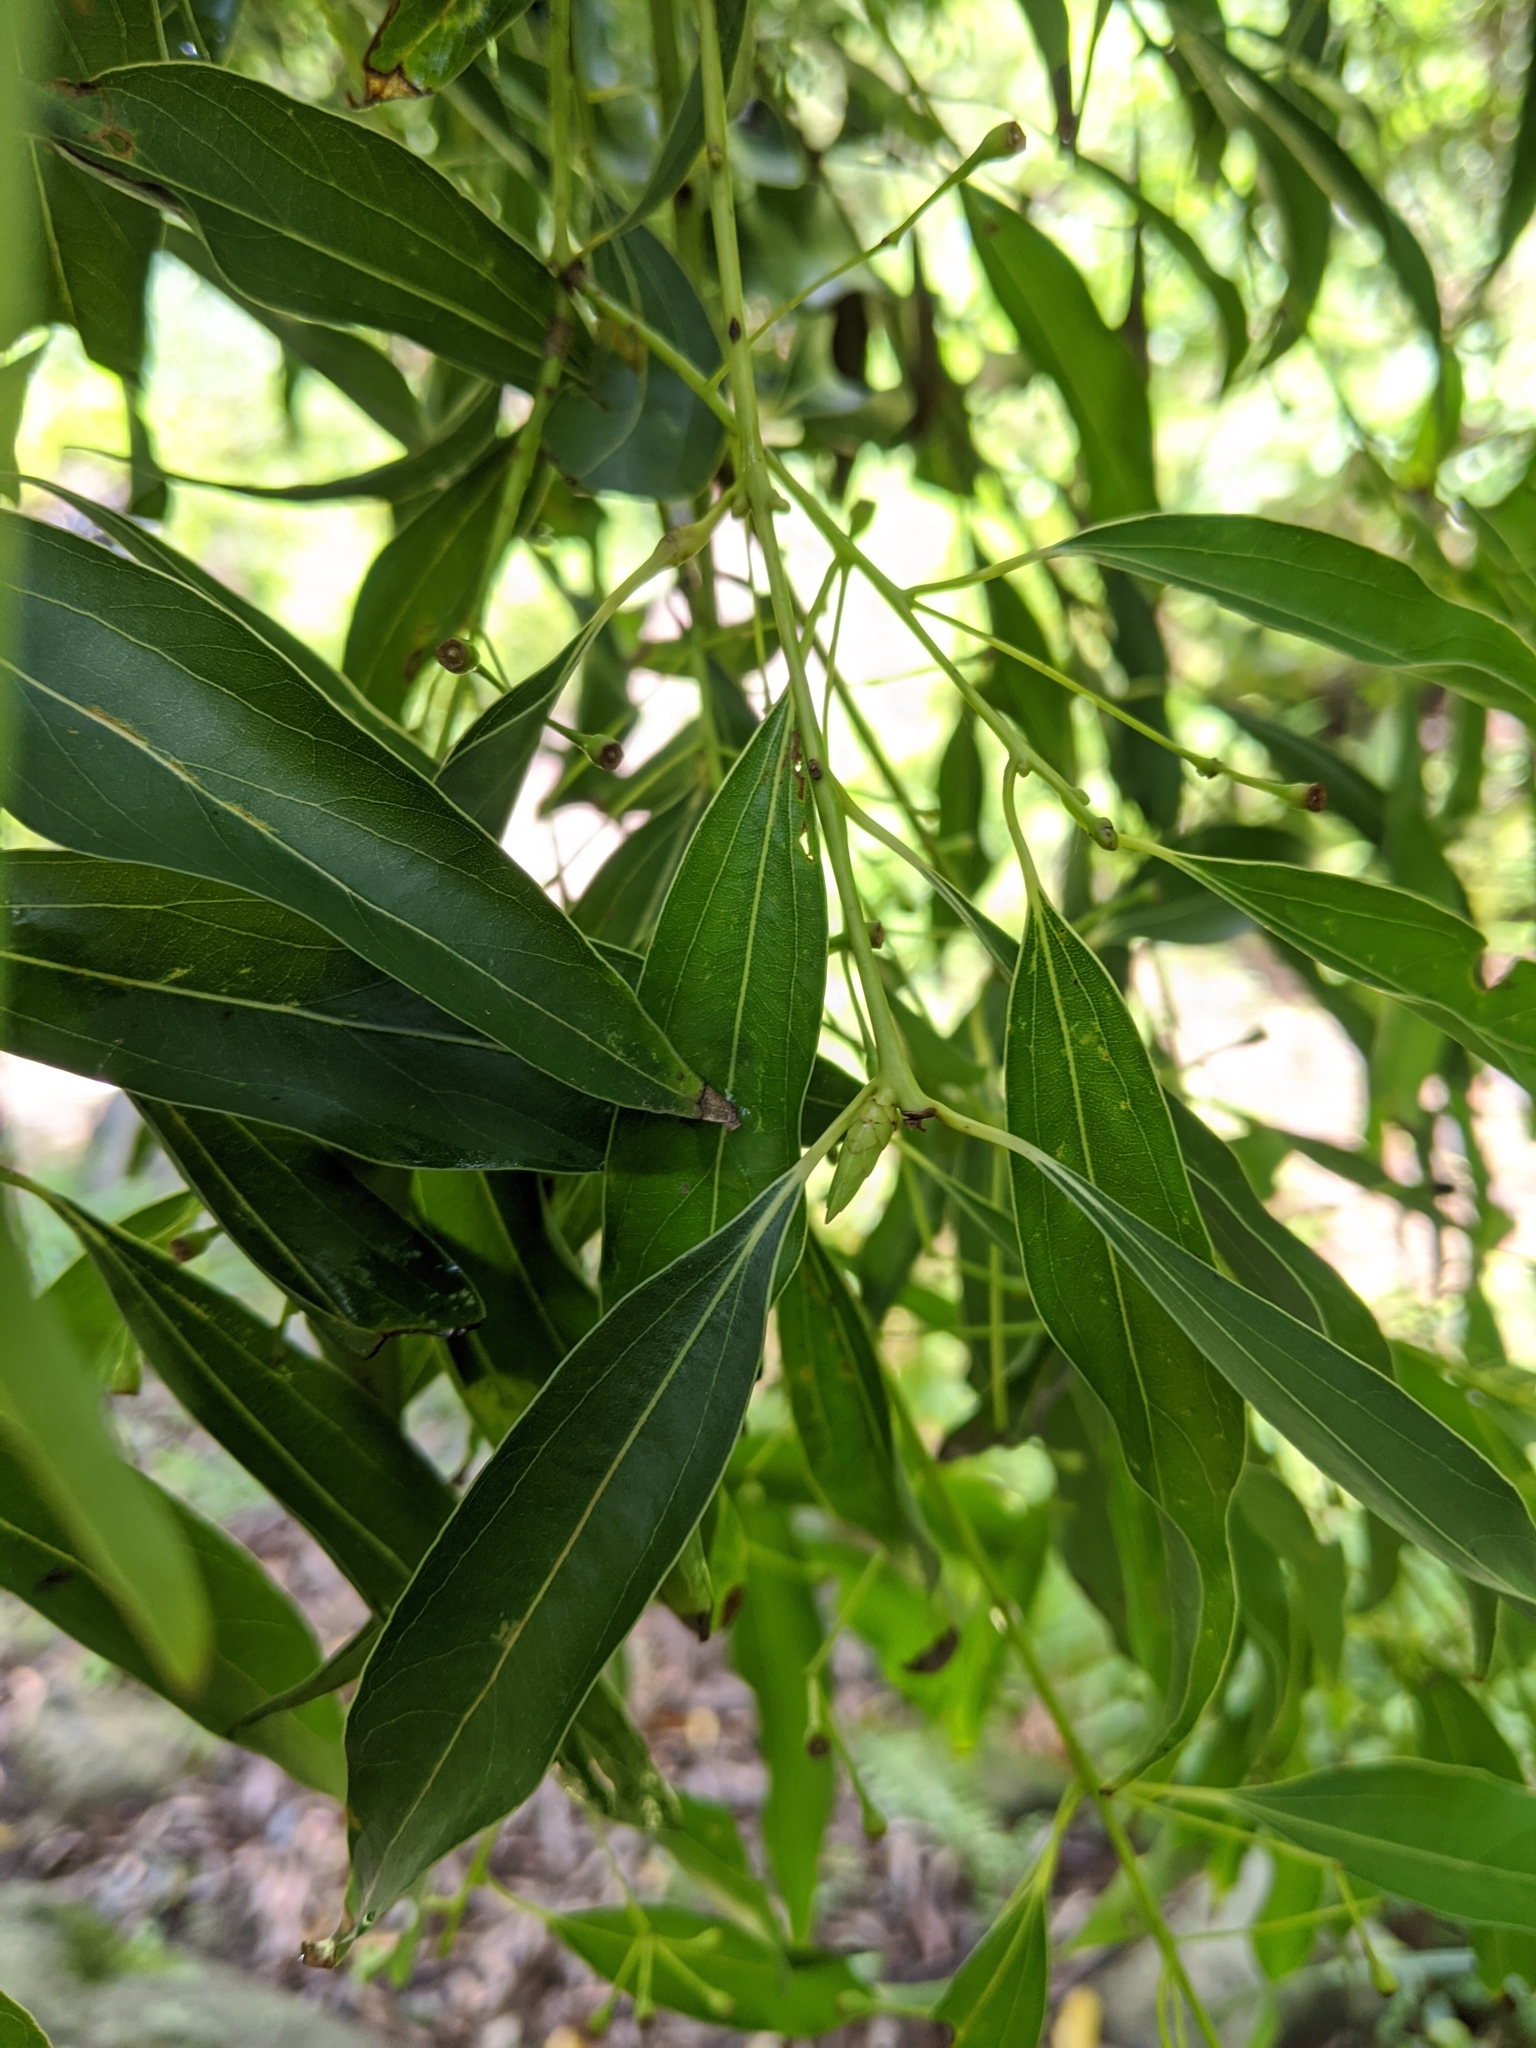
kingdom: Plantae
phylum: Tracheophyta
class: Magnoliopsida
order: Laurales
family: Lauraceae
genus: Cinnamomum
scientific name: Cinnamomum chekiangense
